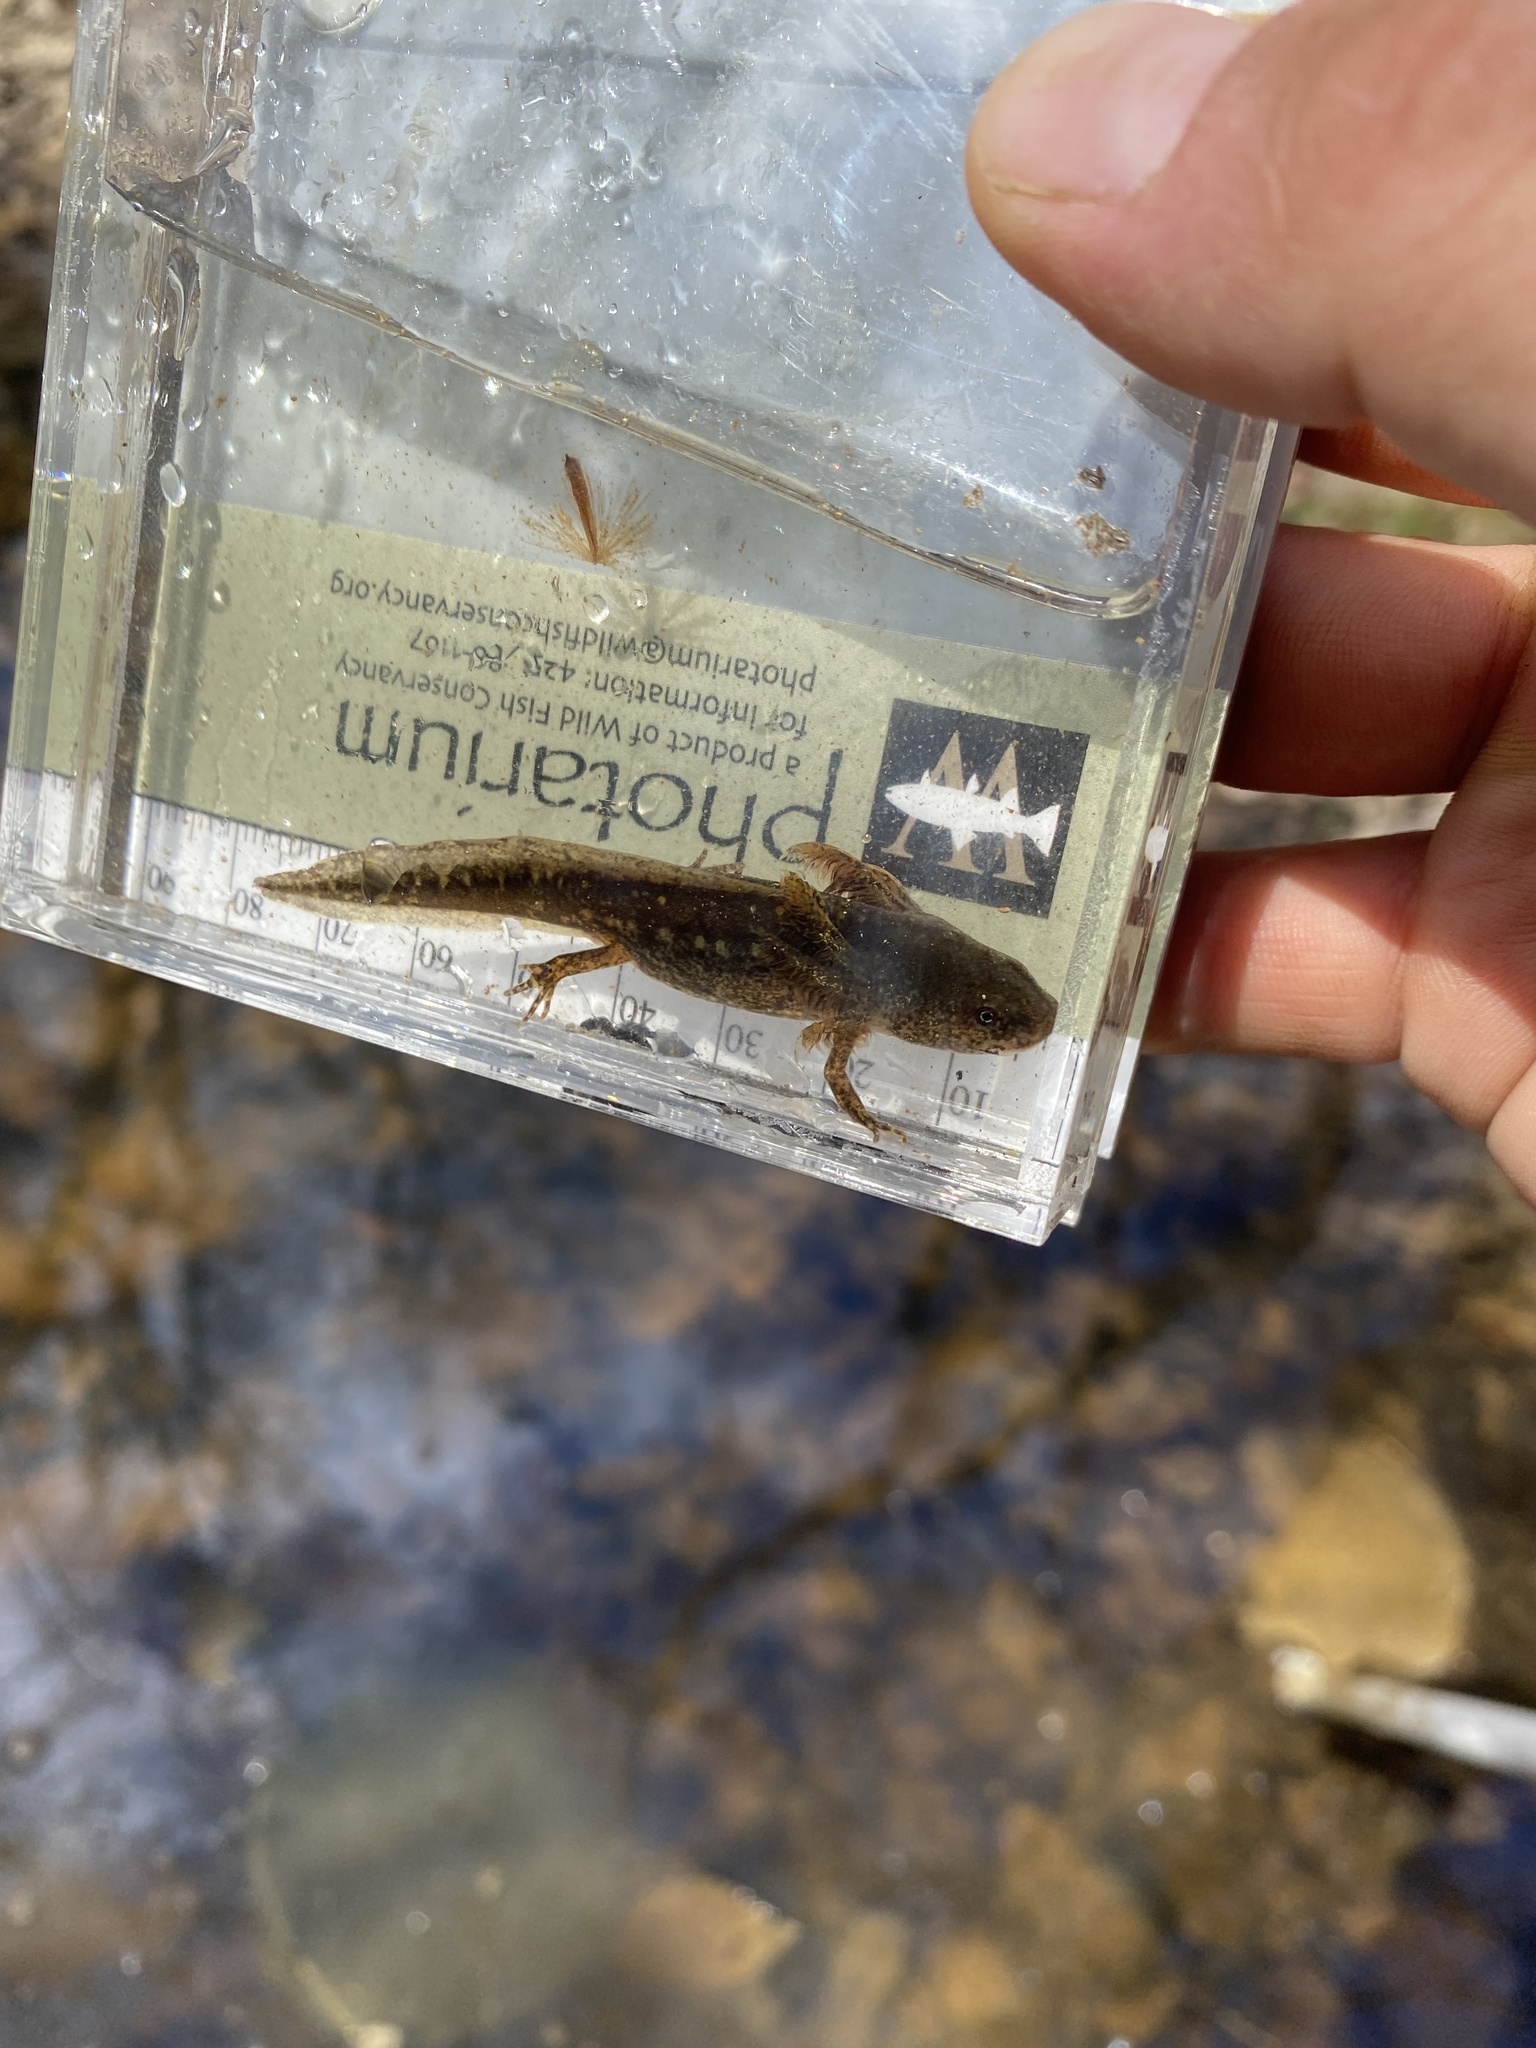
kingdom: Animalia
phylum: Chordata
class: Amphibia
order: Caudata
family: Ambystomatidae
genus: Ambystoma
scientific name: Ambystoma opacum
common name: Marbled salamander
